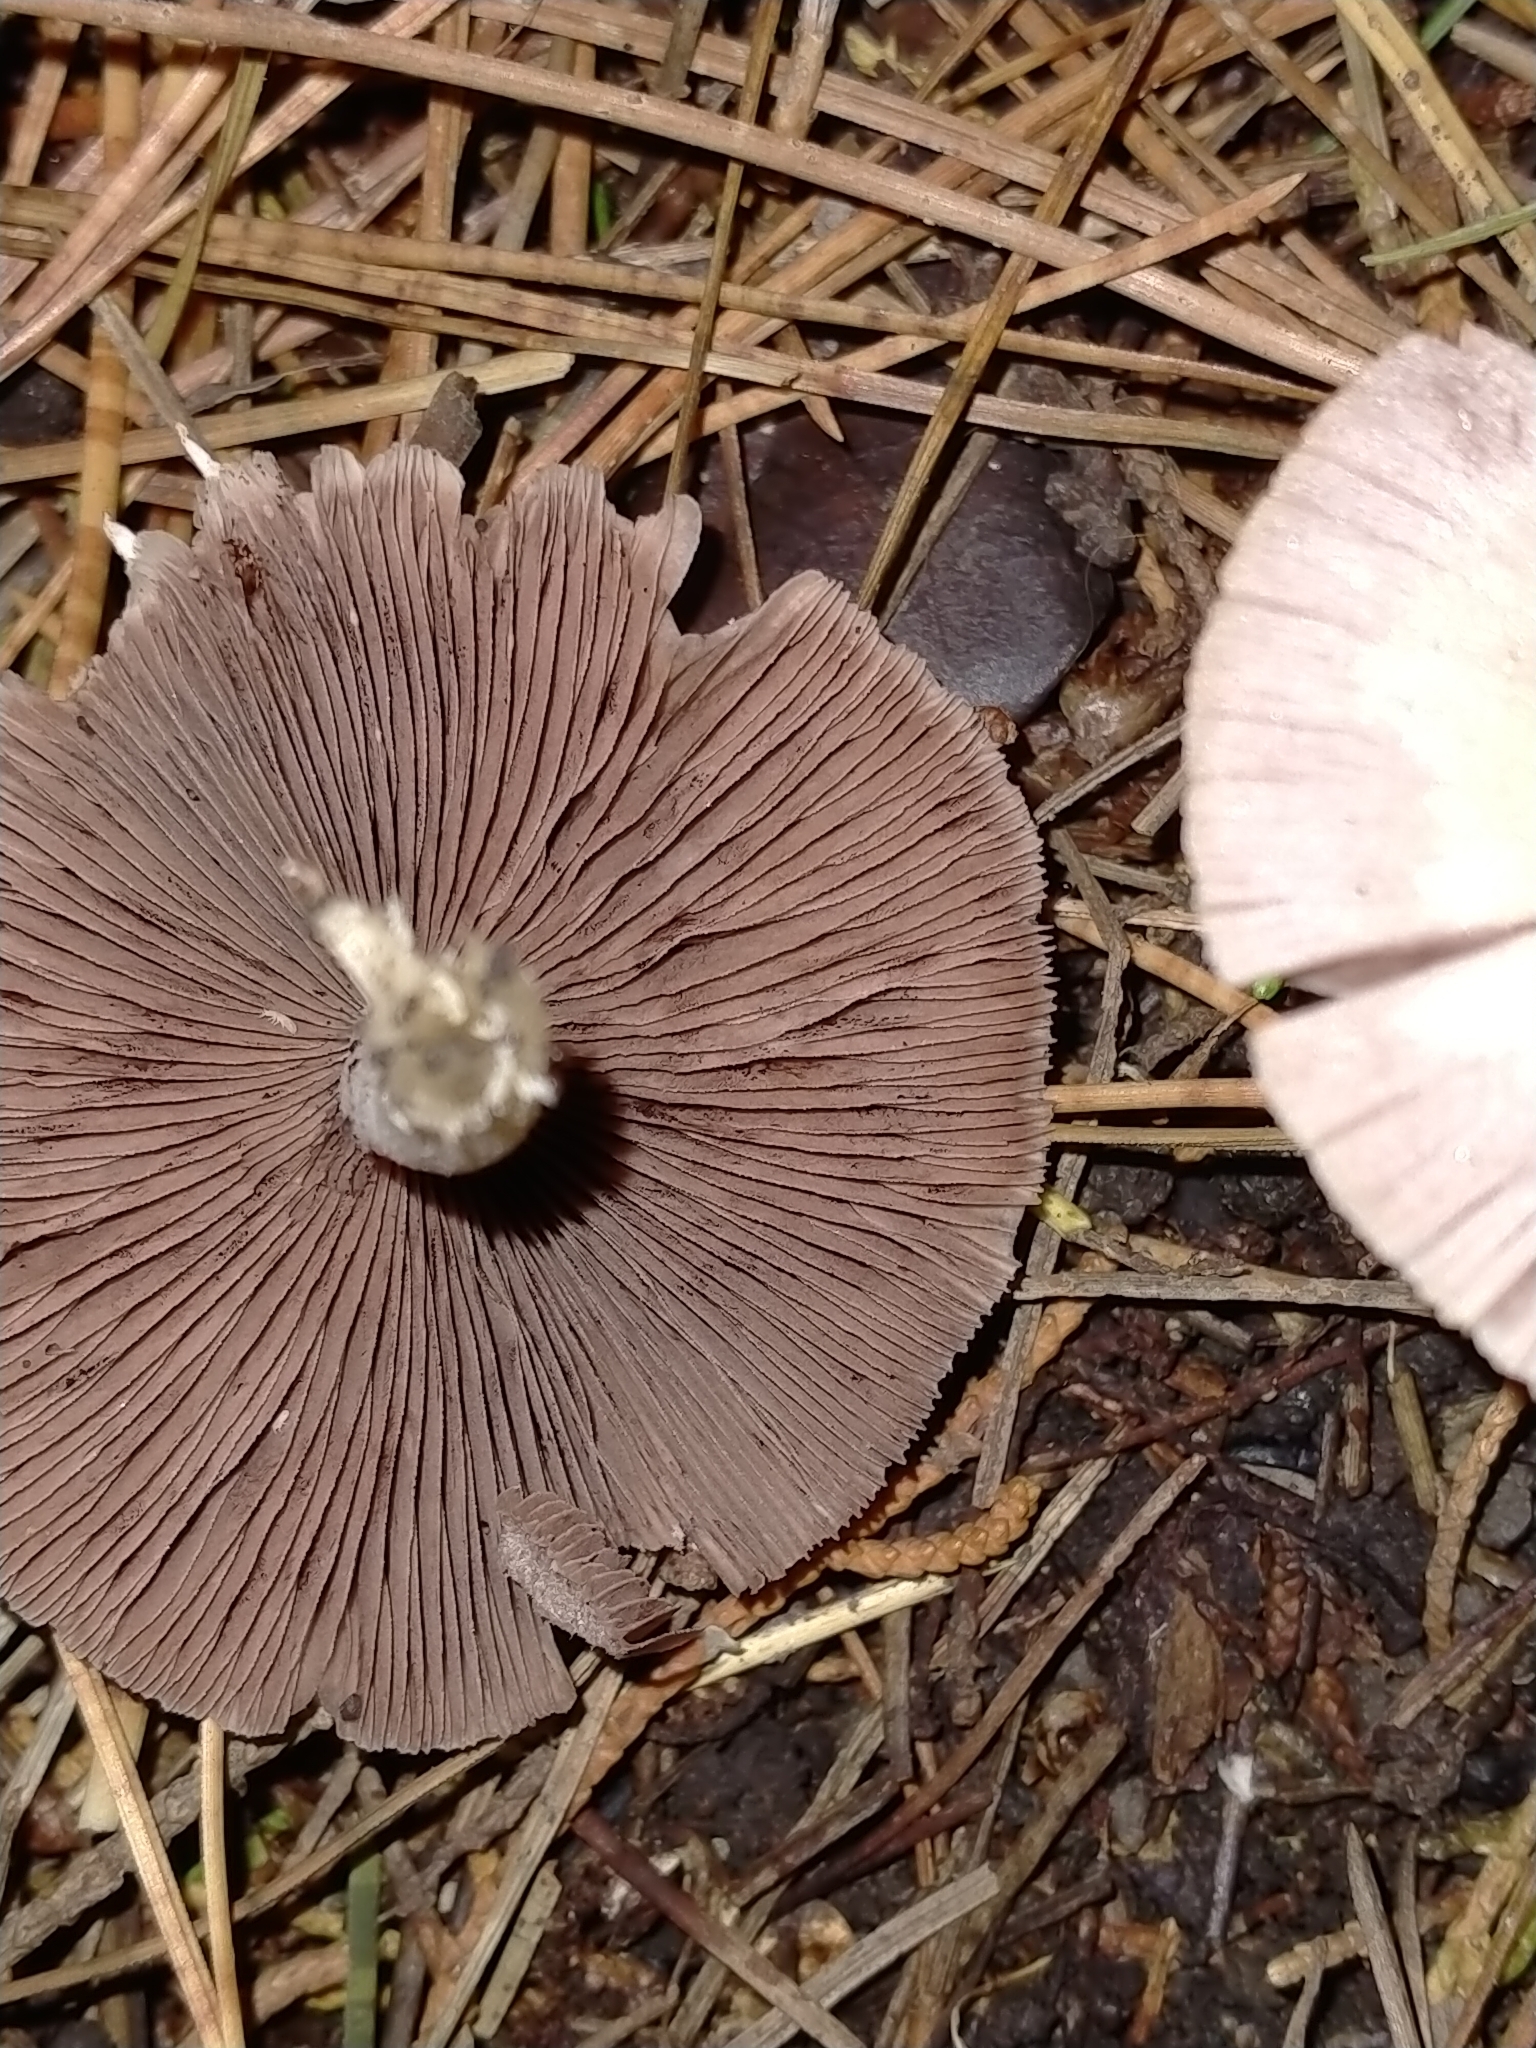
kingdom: Fungi
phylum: Basidiomycota
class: Agaricomycetes
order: Agaricales
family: Psathyrellaceae
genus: Candolleomyces
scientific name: Candolleomyces candolleanus
